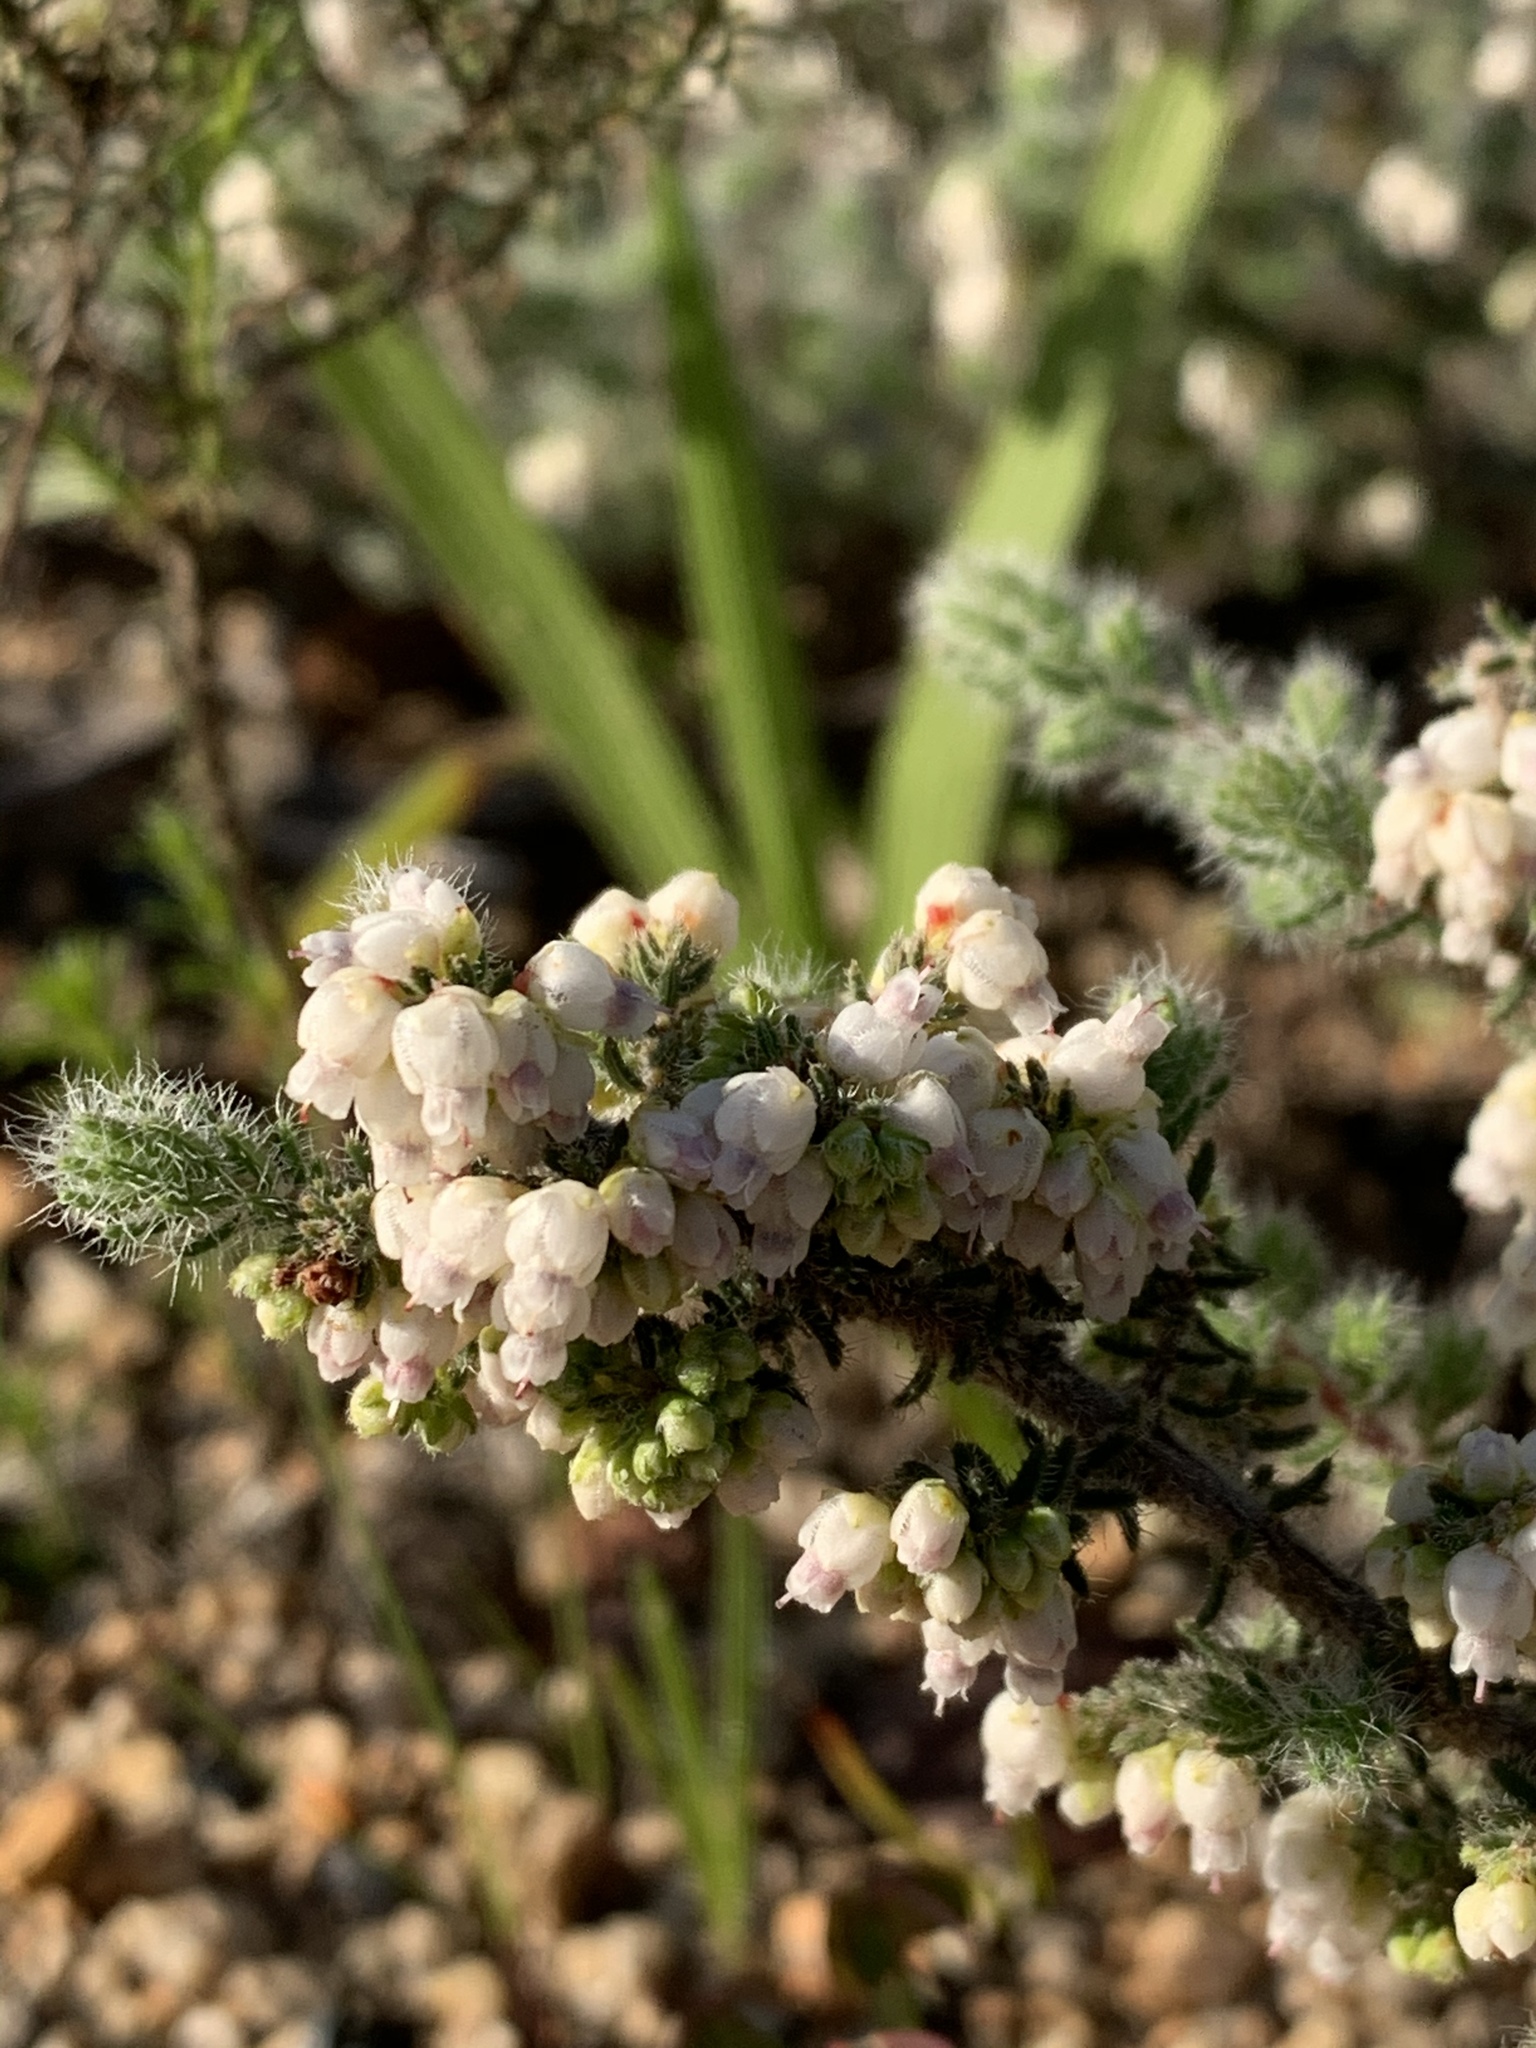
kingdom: Plantae
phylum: Tracheophyta
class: Magnoliopsida
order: Ericales
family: Ericaceae
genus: Erica
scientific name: Erica totta
